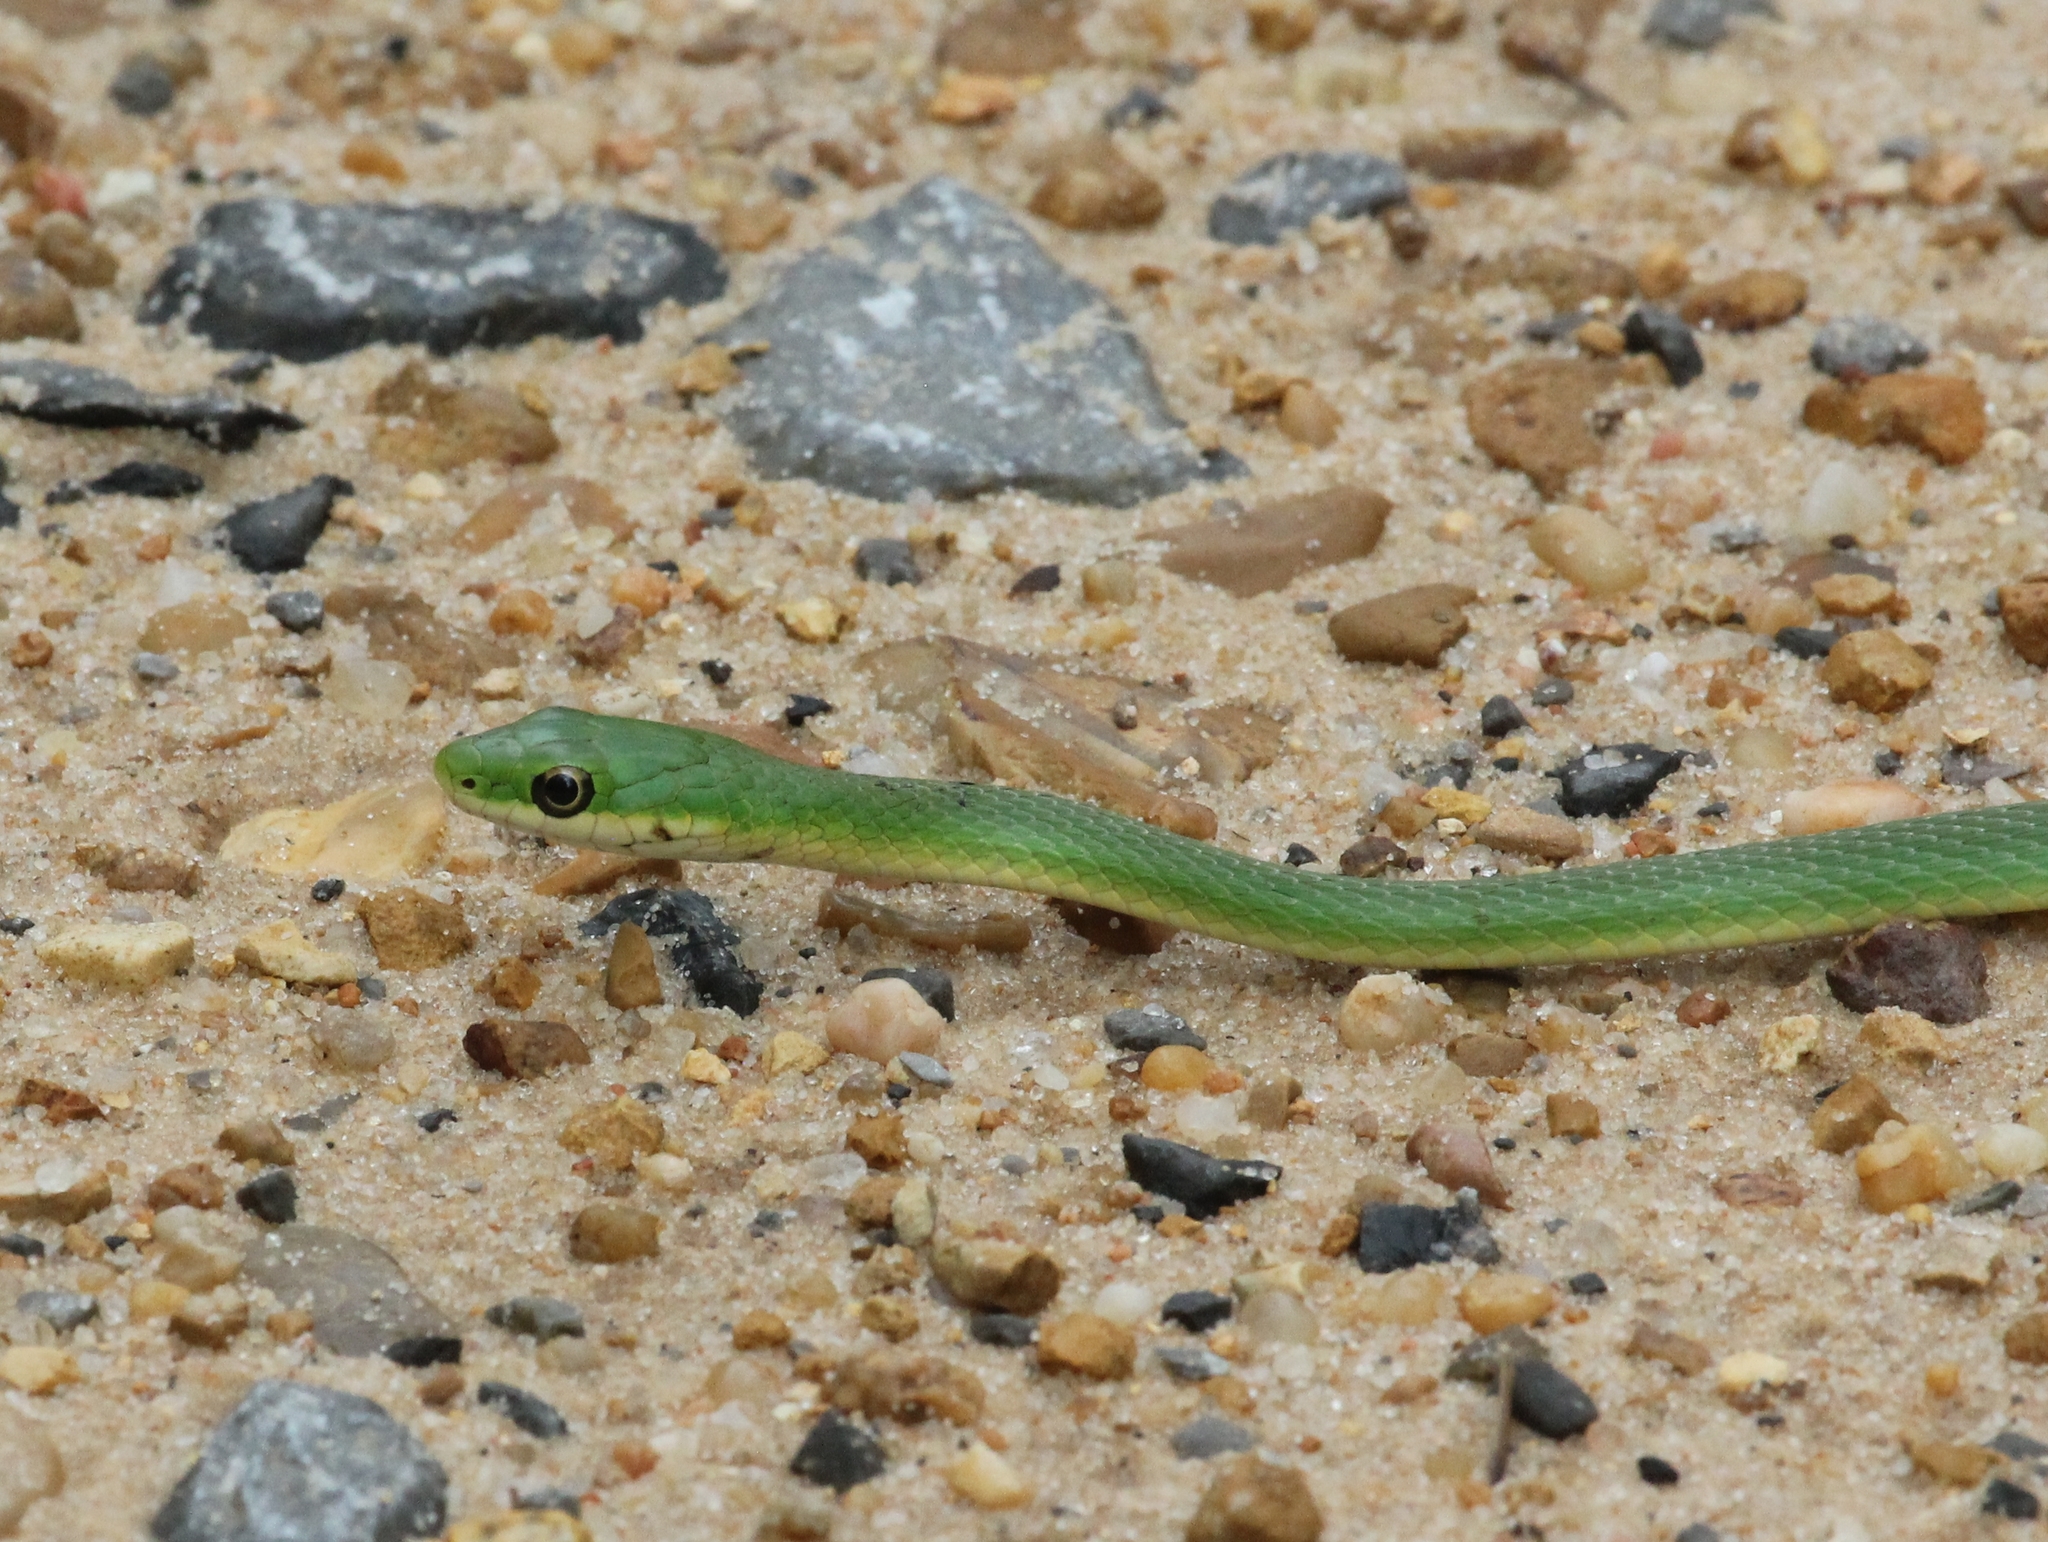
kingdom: Animalia
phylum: Chordata
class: Squamata
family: Colubridae
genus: Opheodrys
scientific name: Opheodrys aestivus
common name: Rough greensnake
